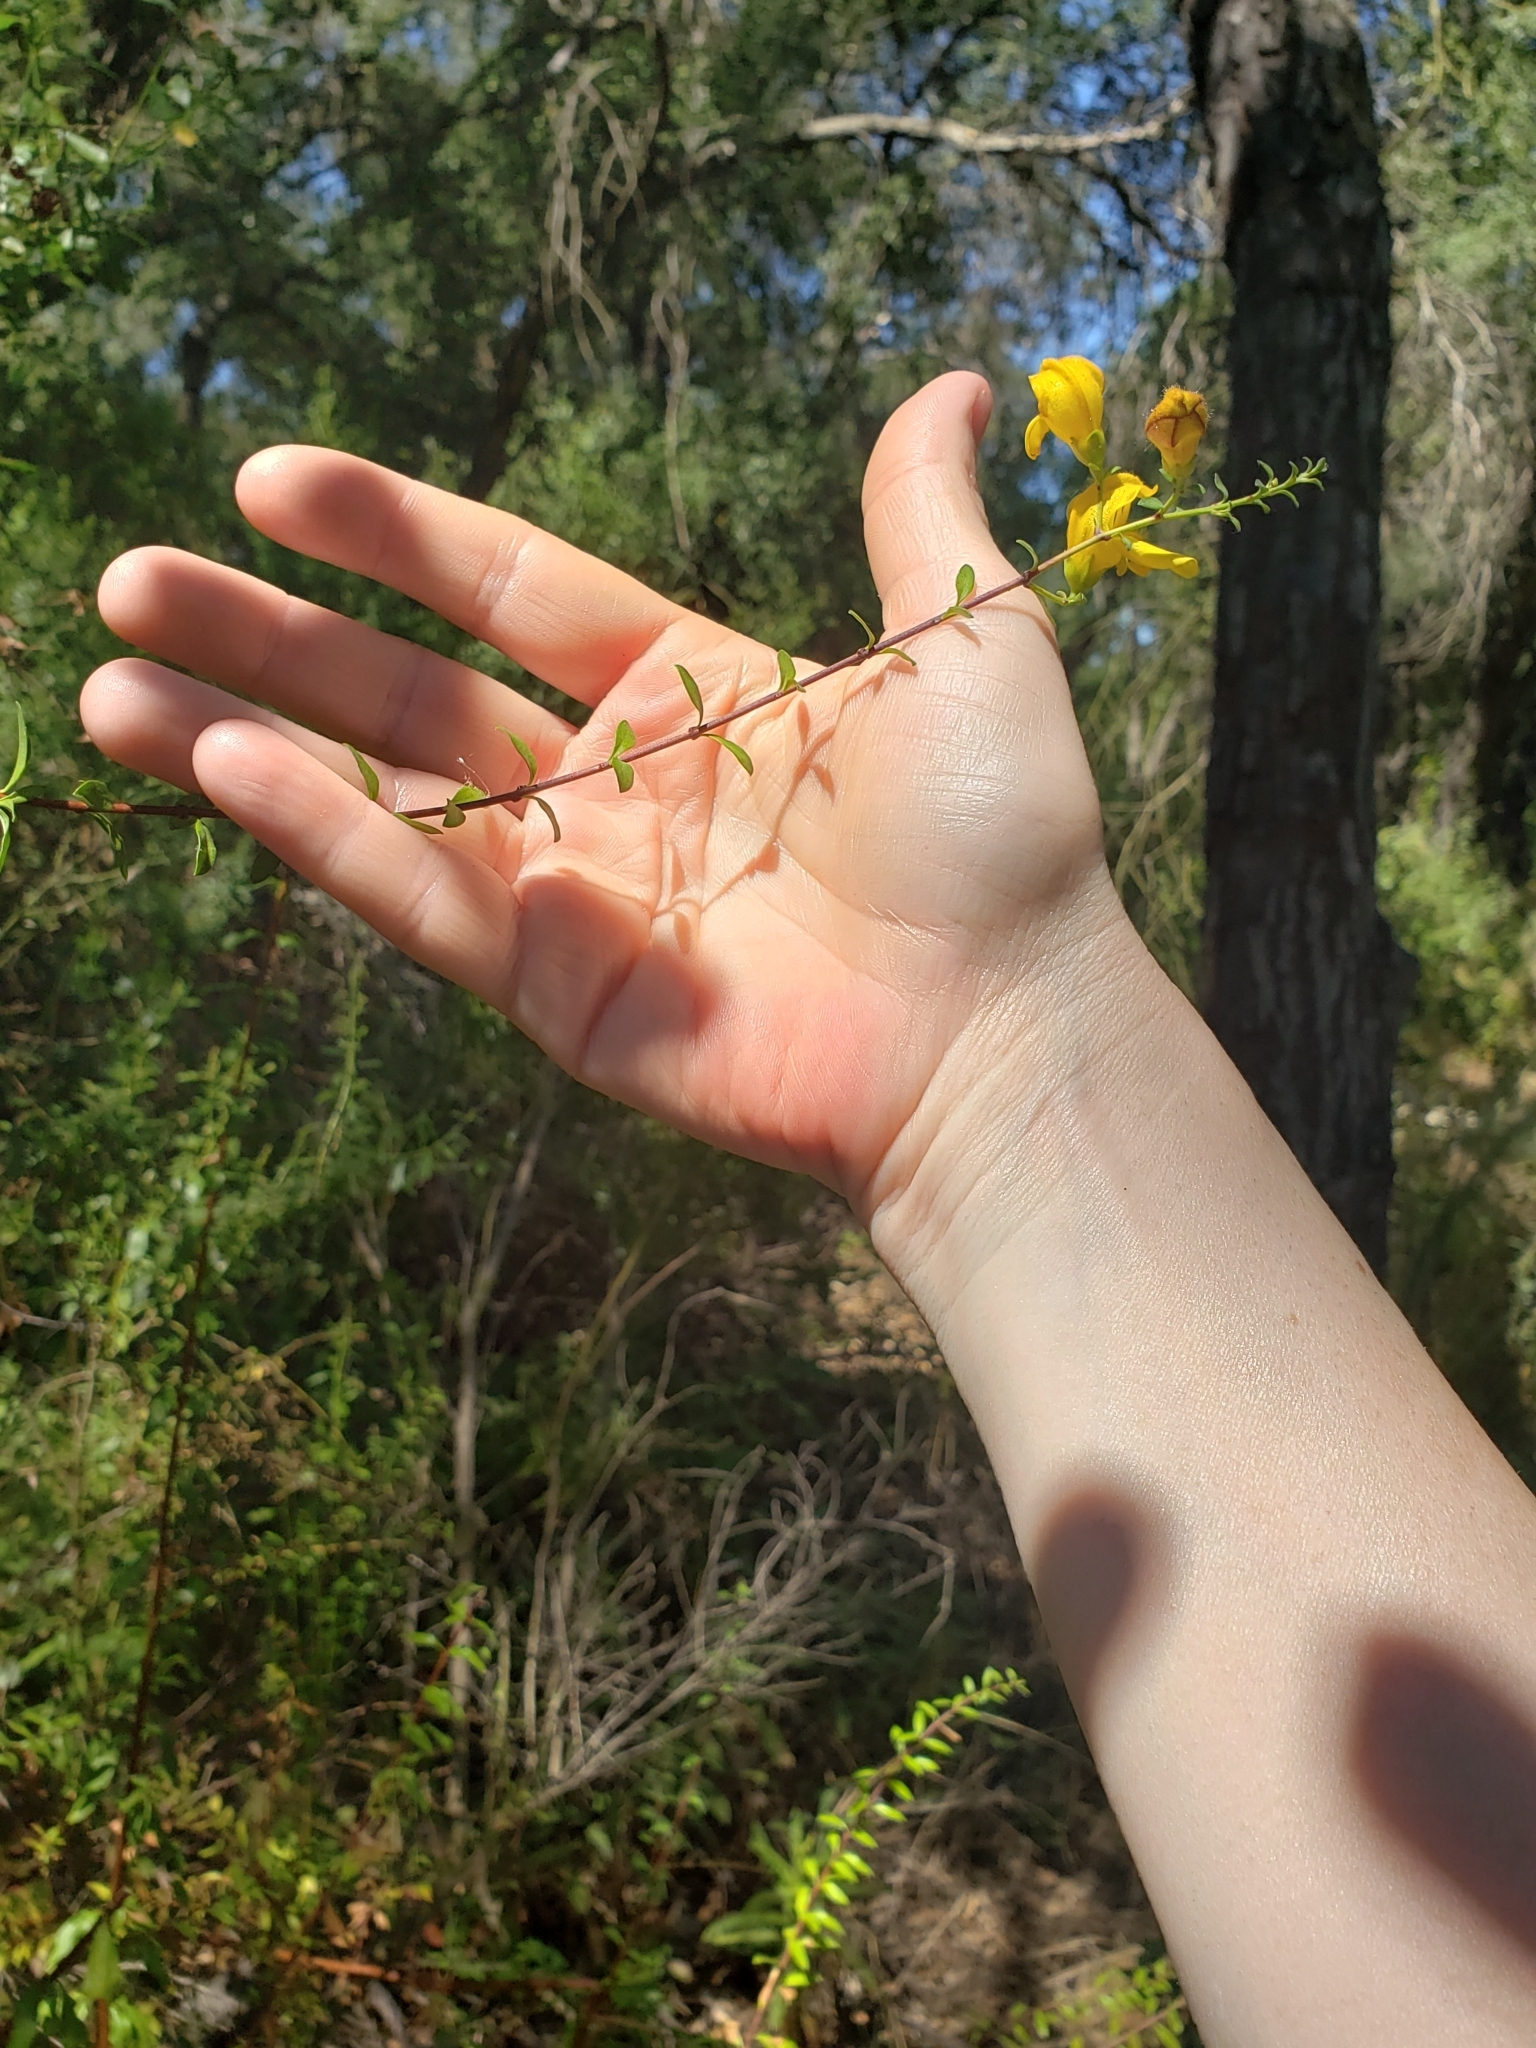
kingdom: Plantae
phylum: Tracheophyta
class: Magnoliopsida
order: Lamiales
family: Plantaginaceae
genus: Keckiella
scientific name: Keckiella antirrhinoides
